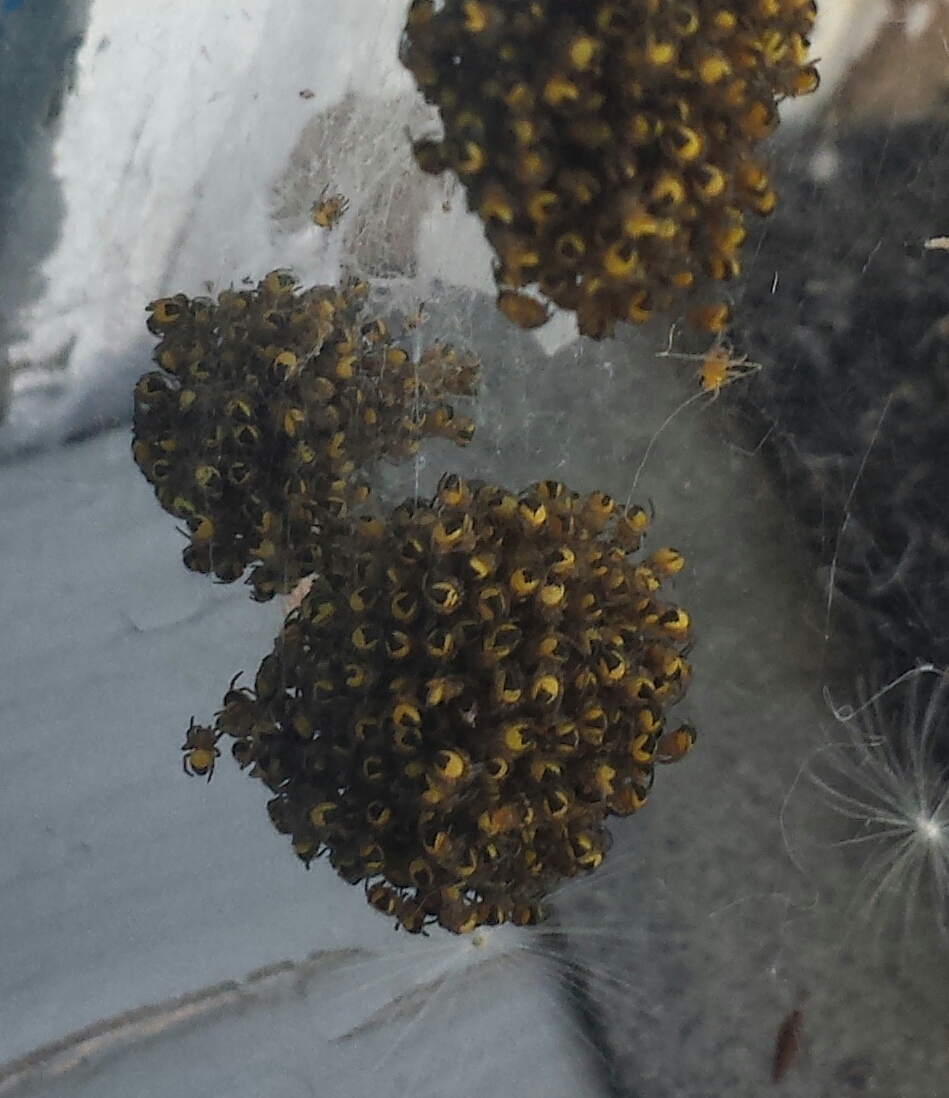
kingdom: Animalia
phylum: Arthropoda
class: Arachnida
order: Araneae
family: Araneidae
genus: Araneus
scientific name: Araneus diadematus
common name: Cross orbweaver
